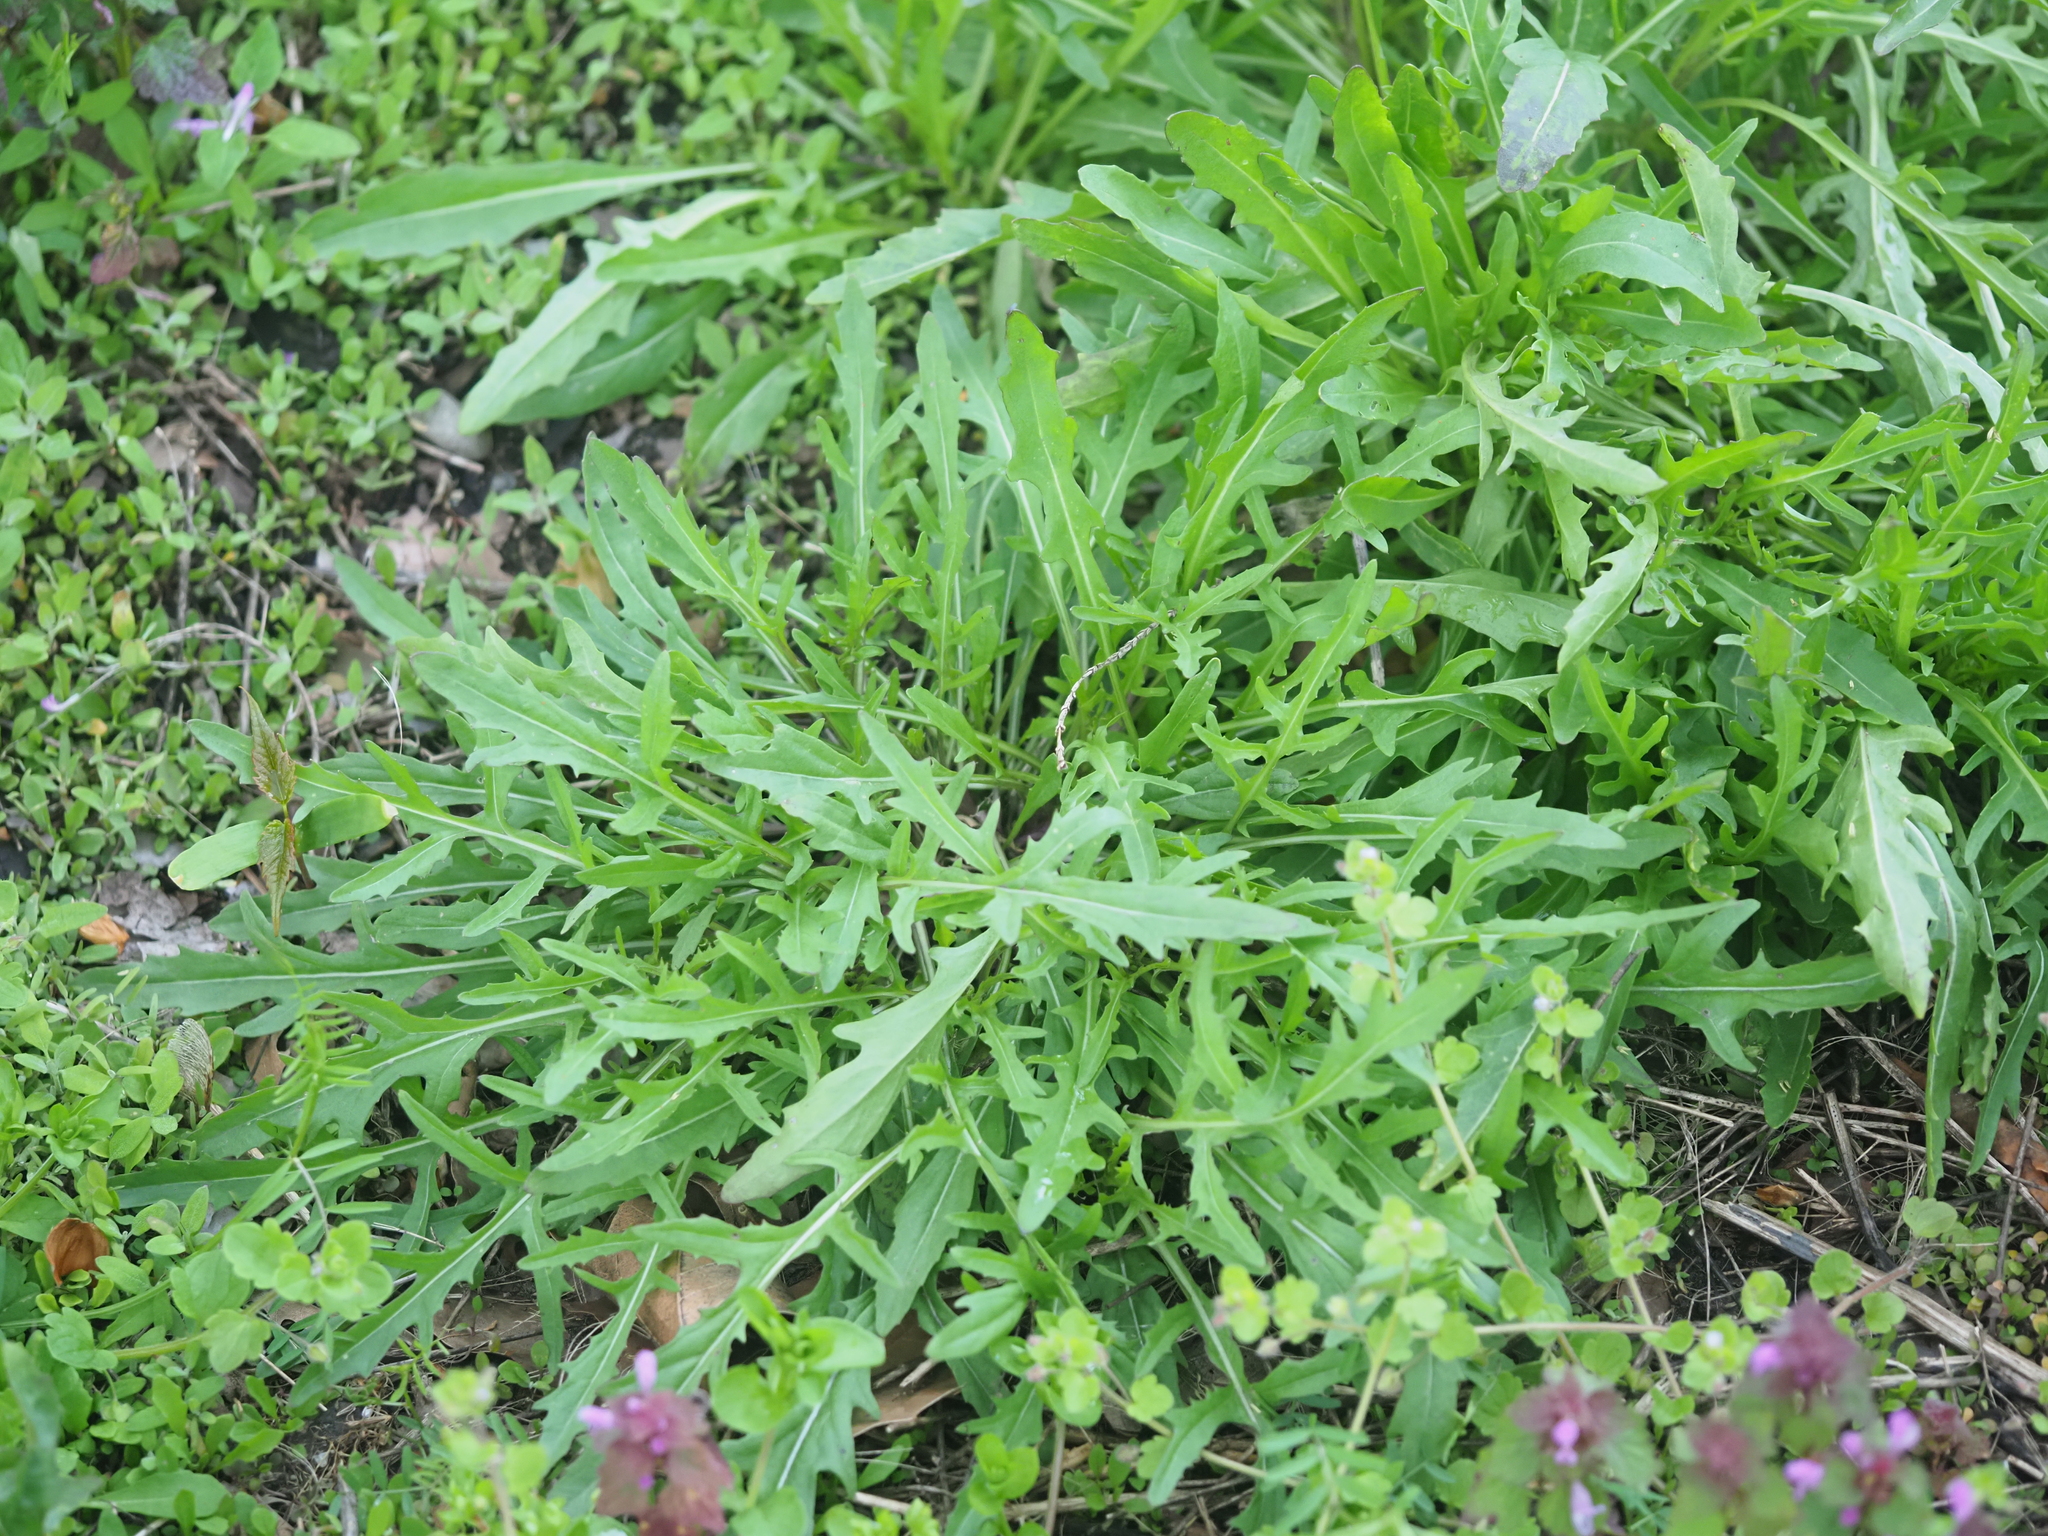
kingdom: Plantae
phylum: Tracheophyta
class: Magnoliopsida
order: Brassicales
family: Brassicaceae
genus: Diplotaxis
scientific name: Diplotaxis tenuifolia
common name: Perennial wall-rocket
